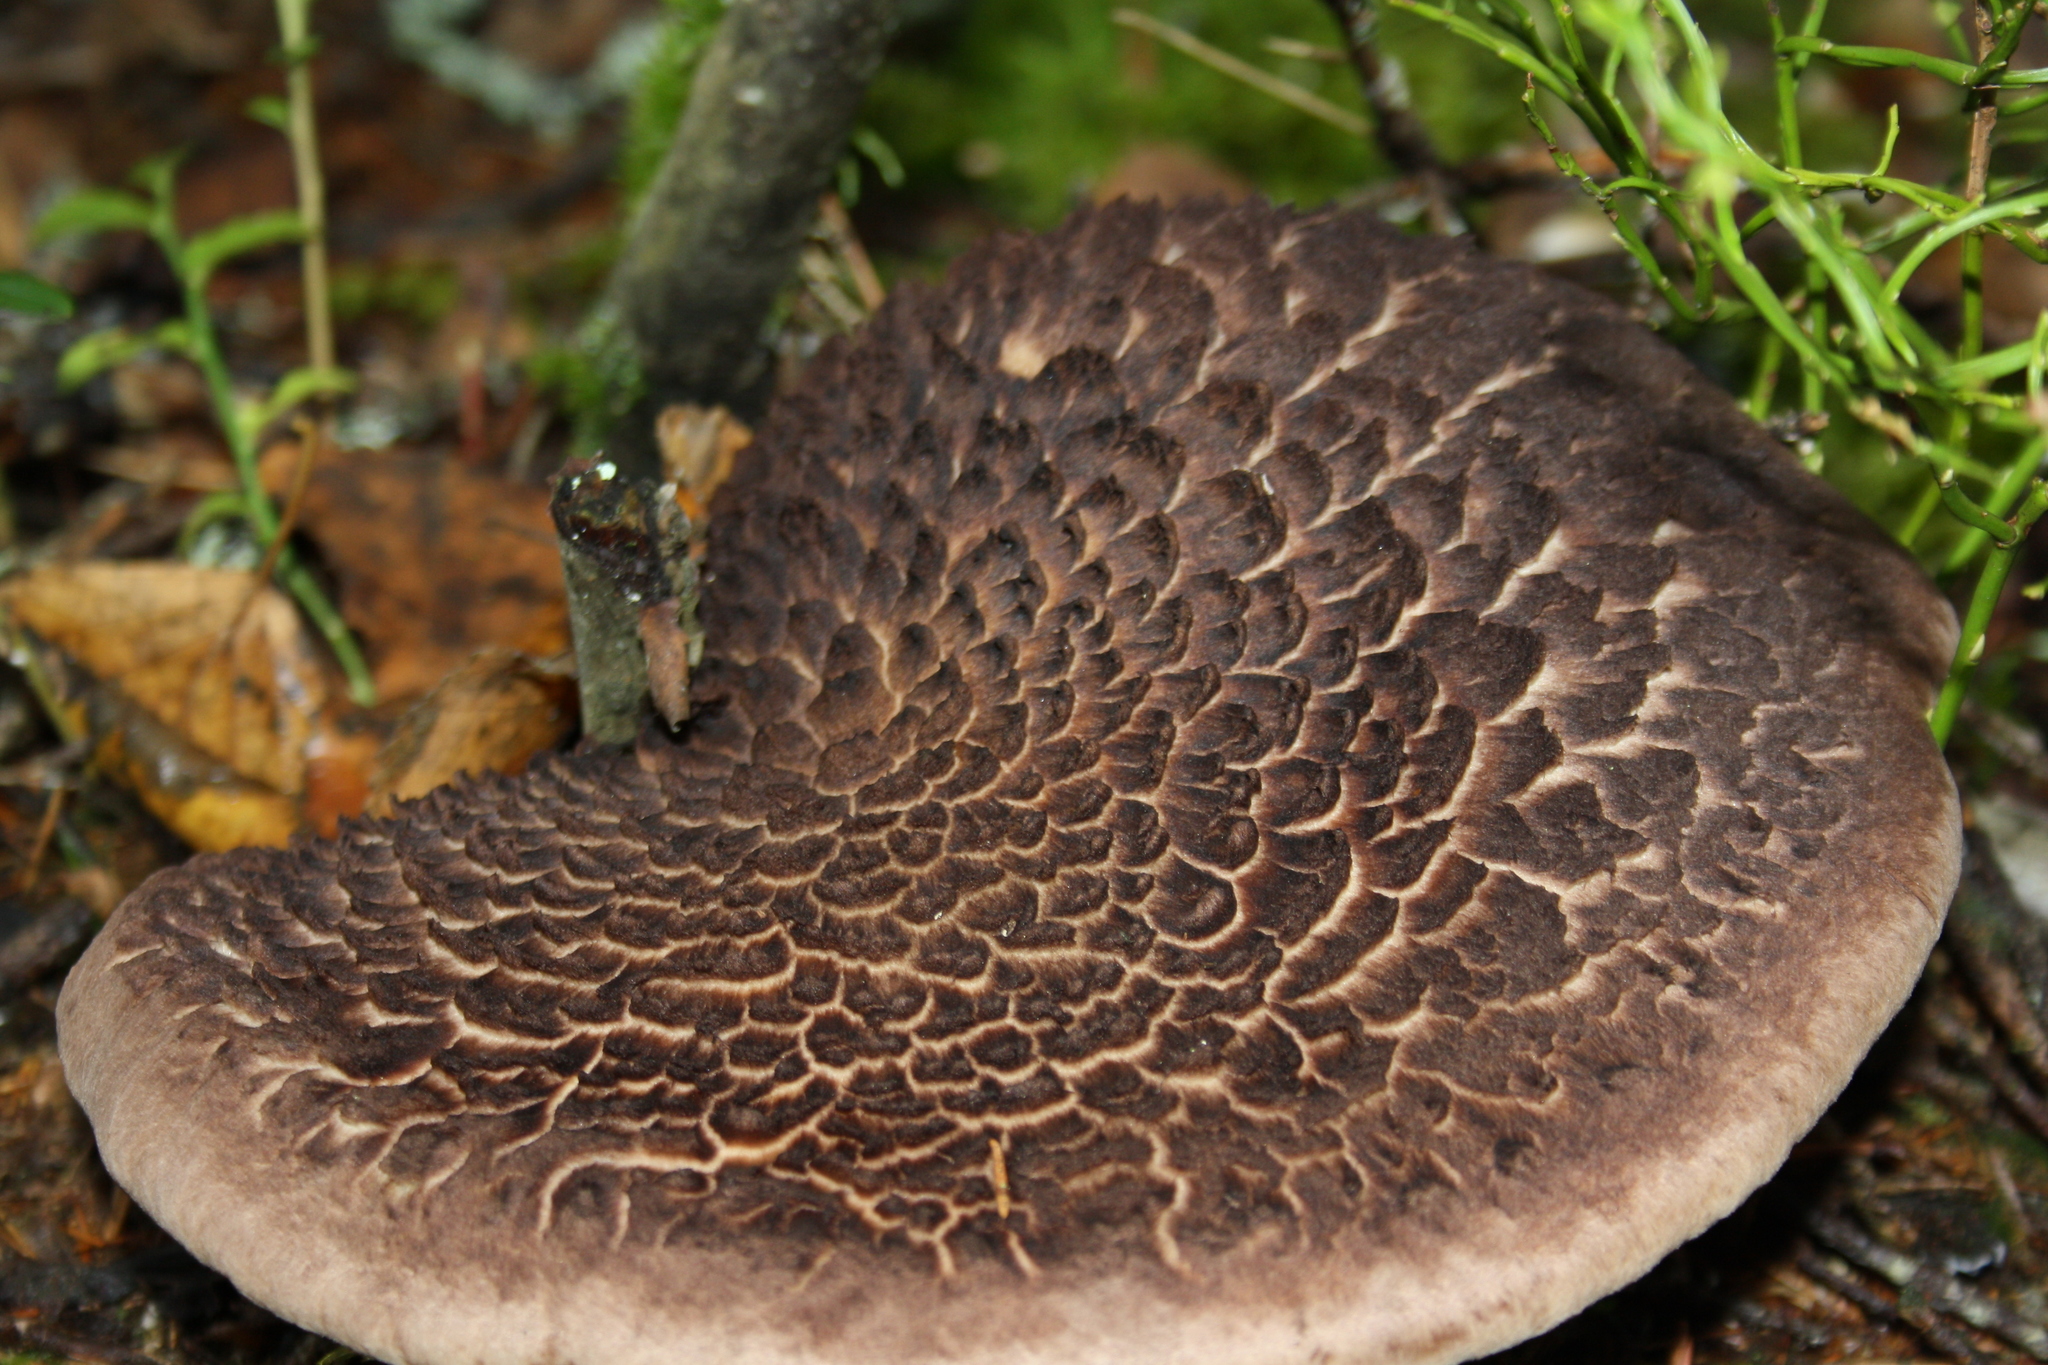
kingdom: Fungi
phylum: Basidiomycota
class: Agaricomycetes
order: Thelephorales
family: Bankeraceae
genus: Sarcodon
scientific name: Sarcodon
